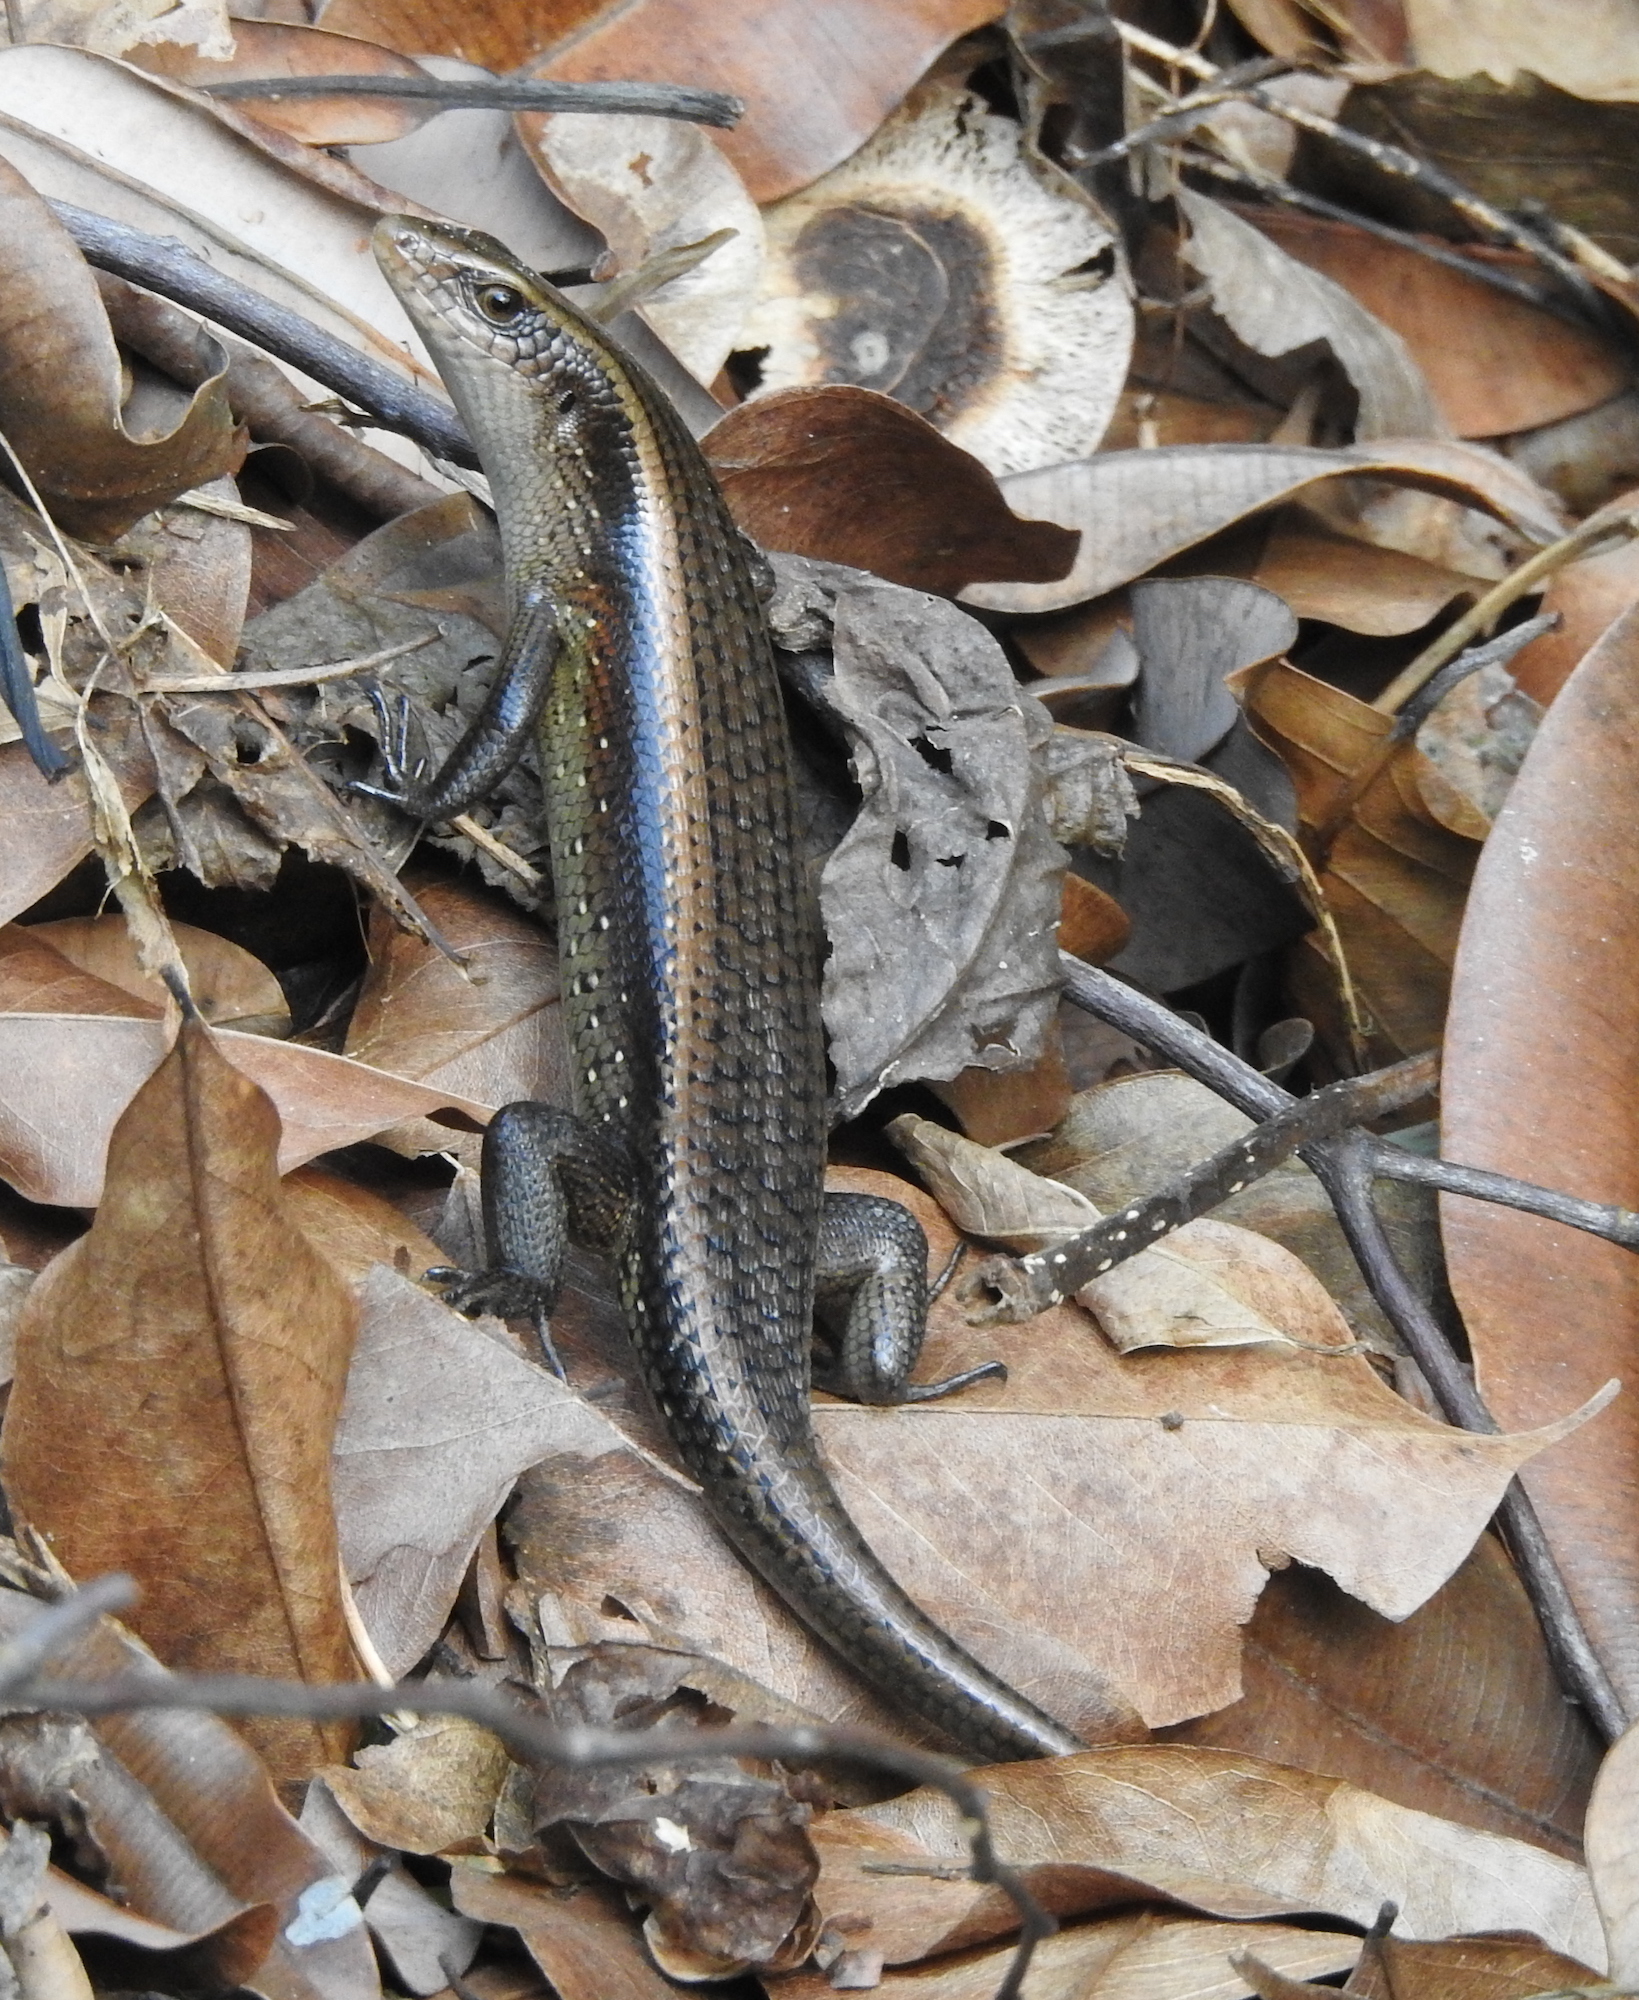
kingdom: Animalia
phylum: Chordata
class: Squamata
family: Scincidae
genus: Eutropis
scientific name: Eutropis multifasciata
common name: Common mabuya
